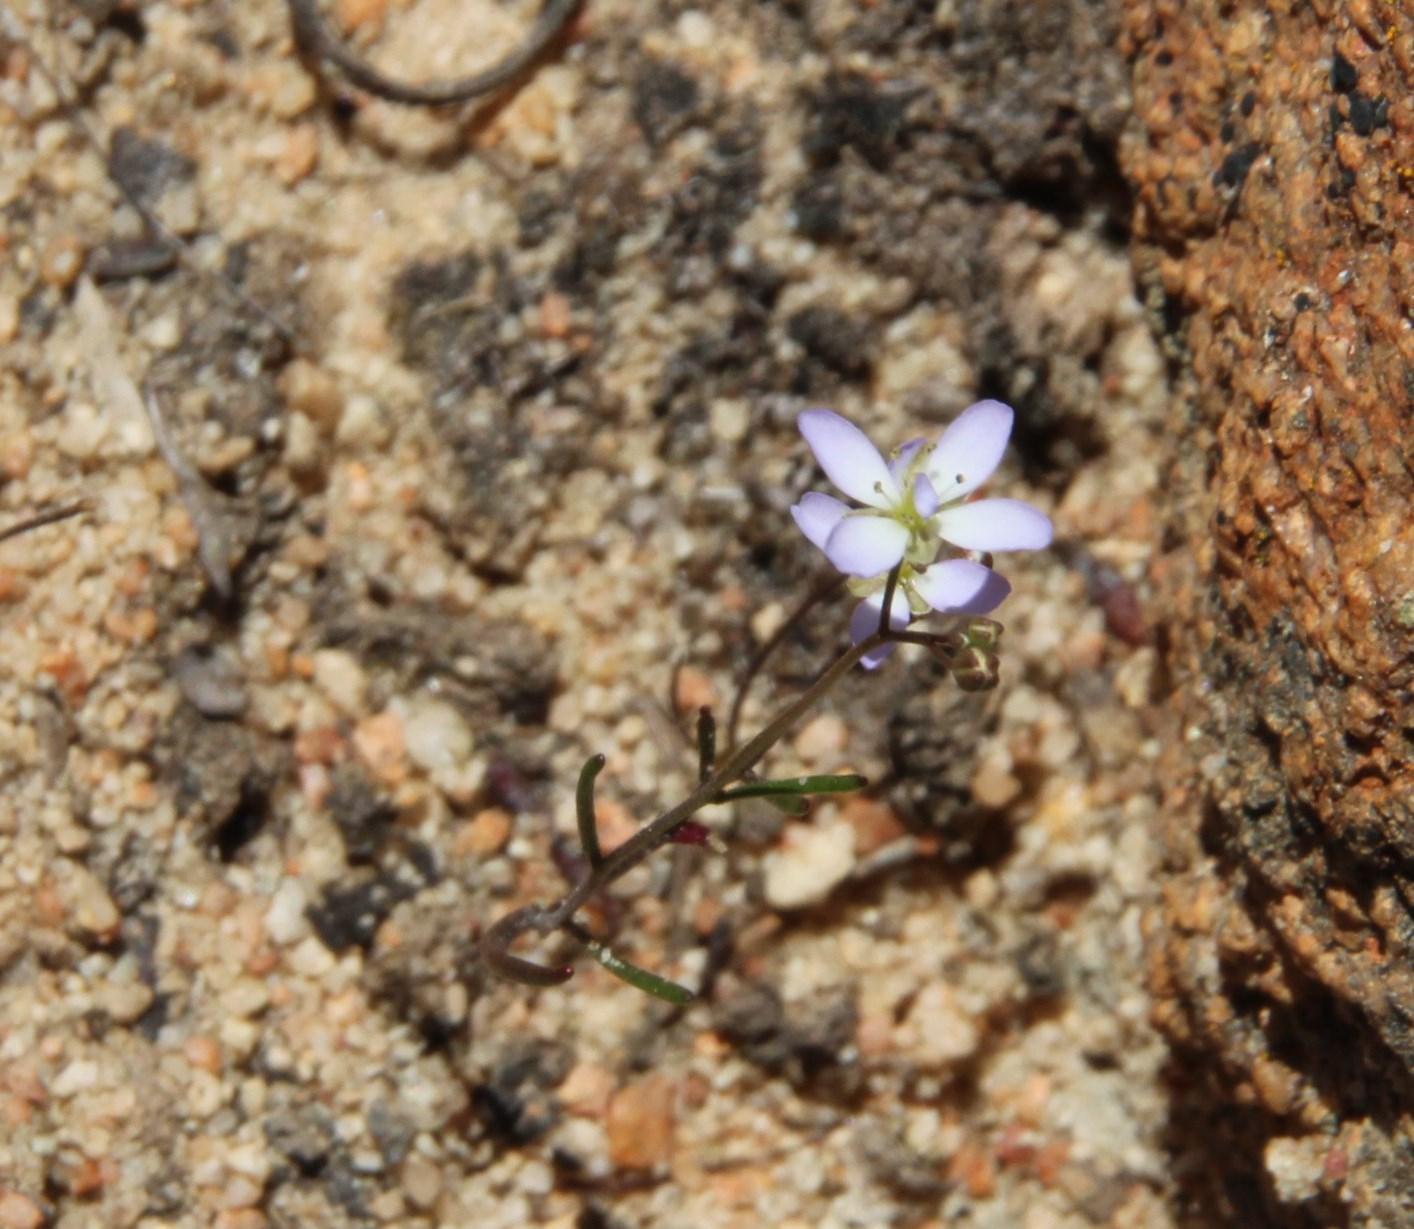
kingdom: Plantae
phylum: Tracheophyta
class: Magnoliopsida
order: Brassicales
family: Brassicaceae
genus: Heliophila
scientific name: Heliophila pinnata
